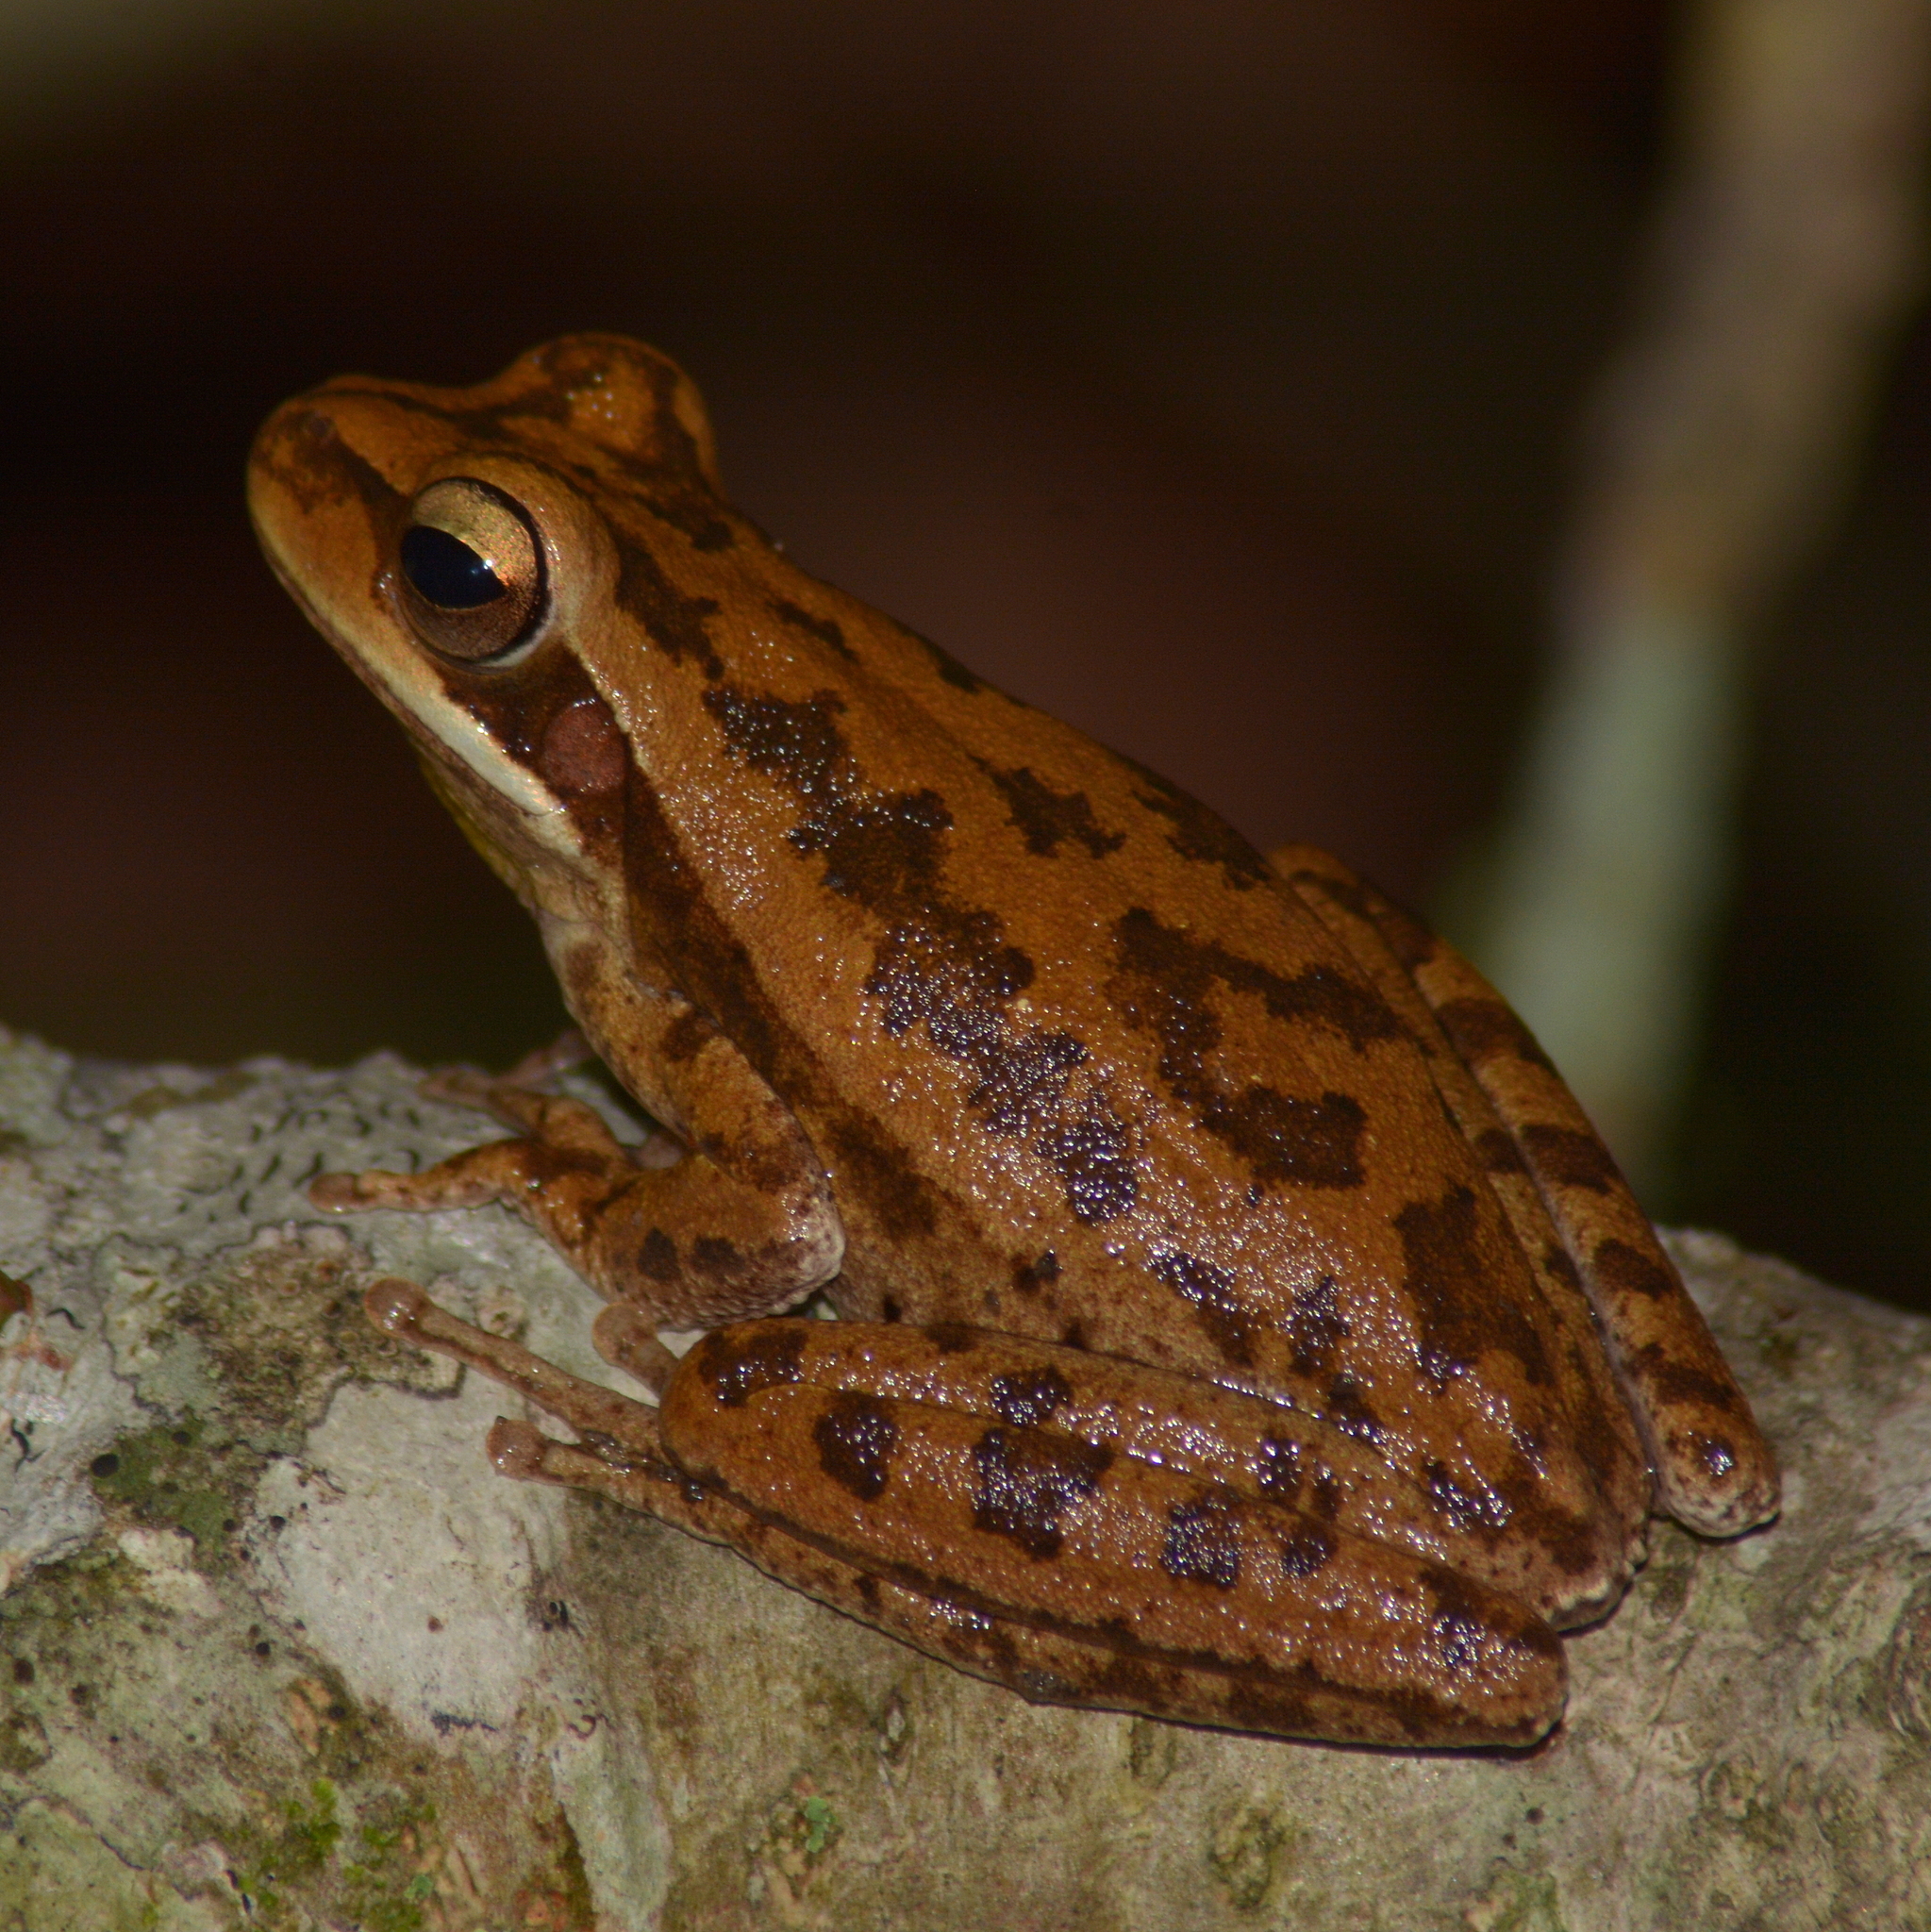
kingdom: Animalia
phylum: Chordata
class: Amphibia
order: Anura
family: Hylidae
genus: Boana
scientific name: Boana pulchella
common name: Montevideo treefrog
